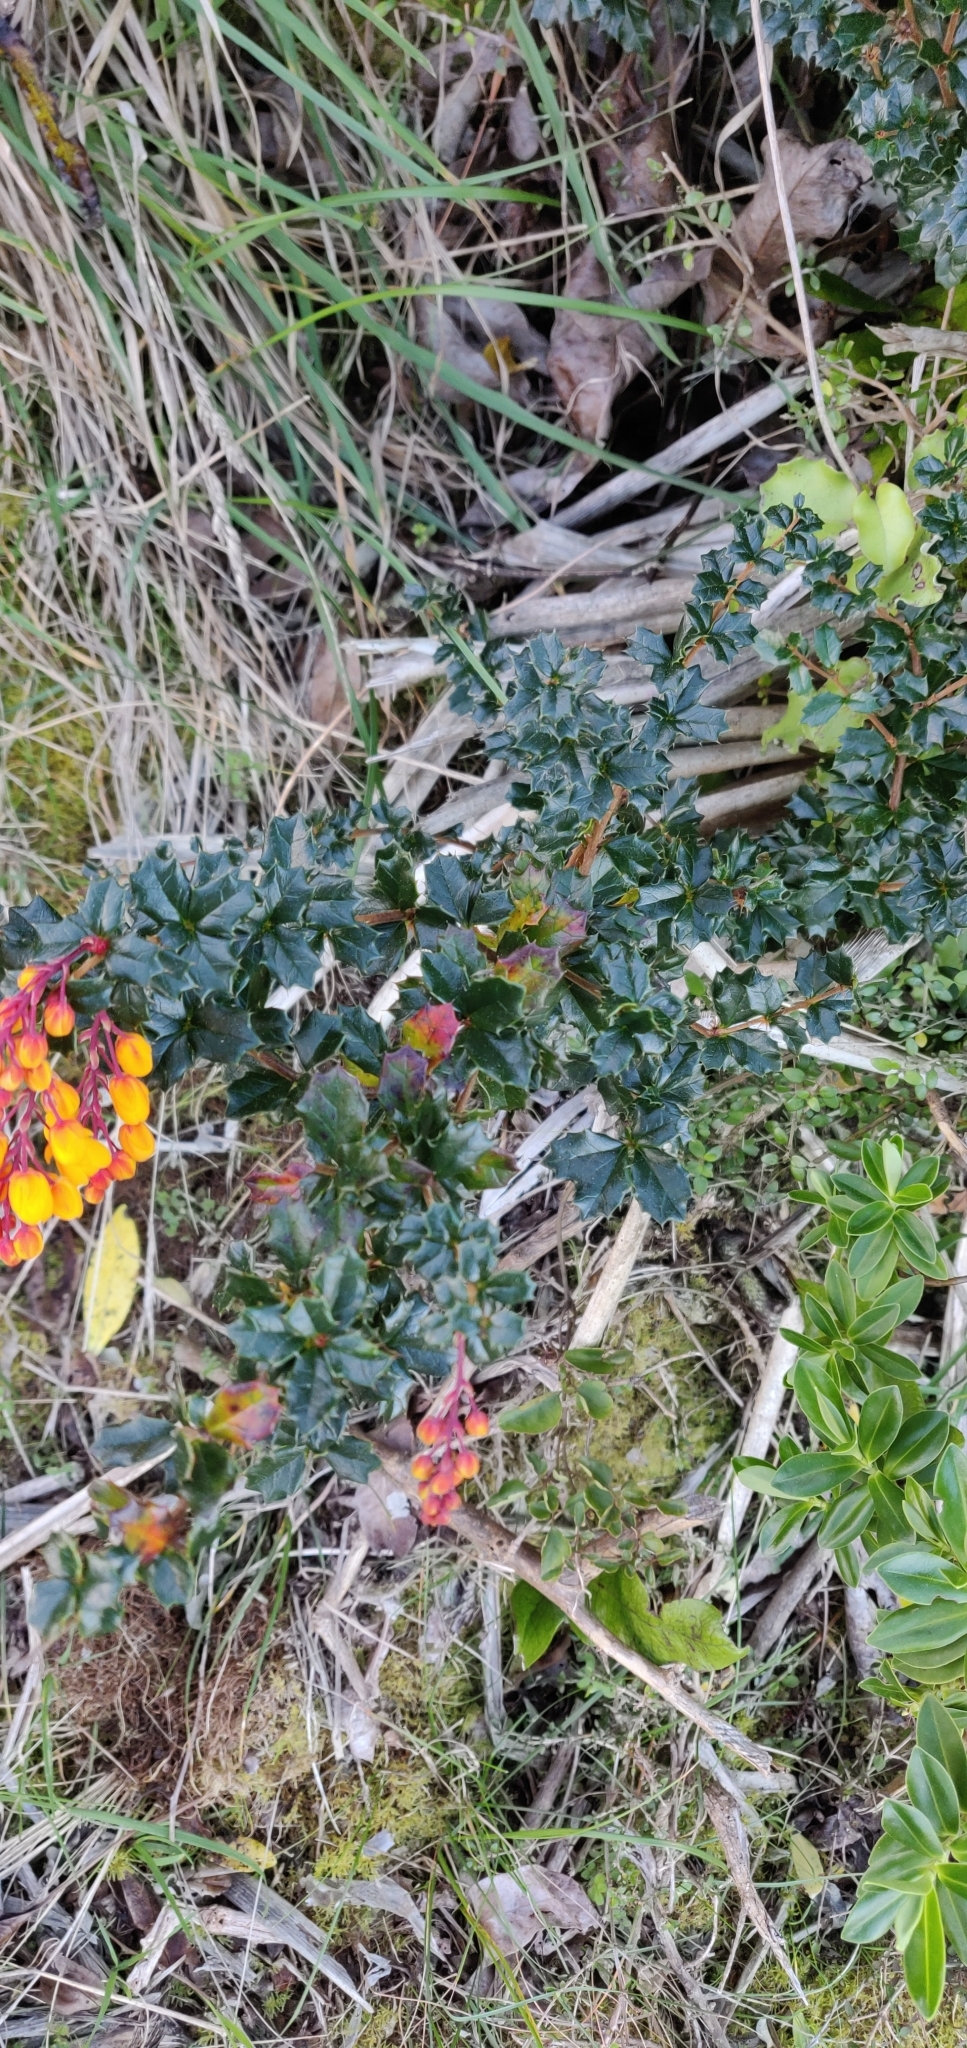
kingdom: Plantae
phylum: Tracheophyta
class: Magnoliopsida
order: Ranunculales
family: Berberidaceae
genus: Berberis
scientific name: Berberis darwinii
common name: Darwin's barberry
